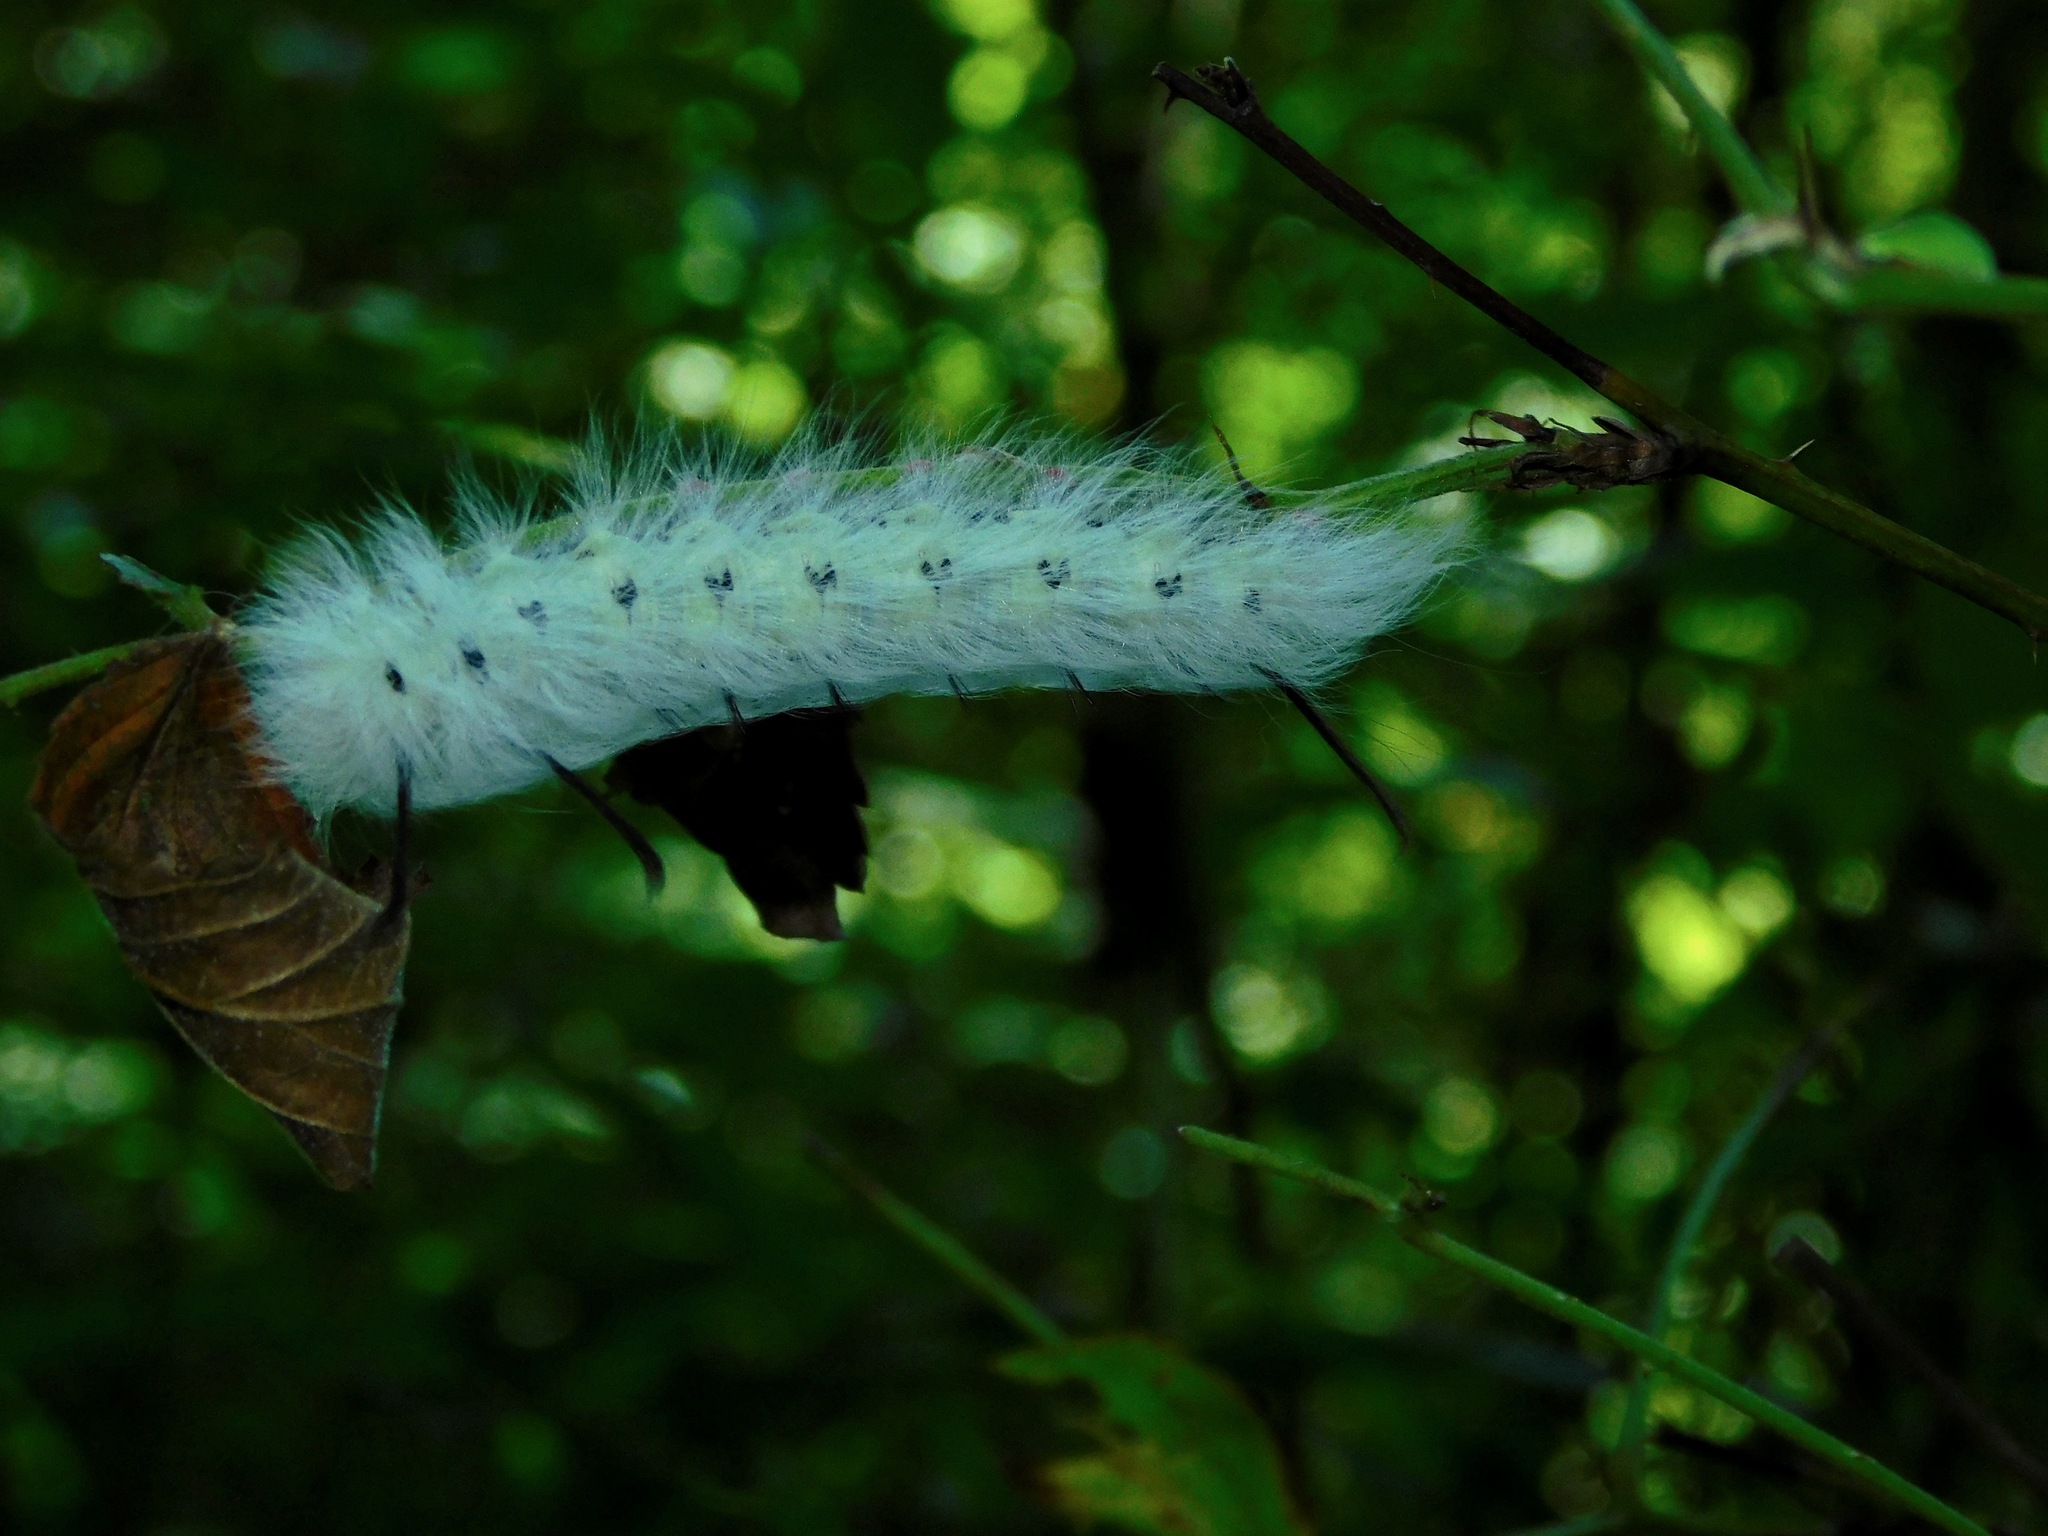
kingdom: Animalia
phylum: Arthropoda
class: Insecta
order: Lepidoptera
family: Noctuidae
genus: Acronicta
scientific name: Acronicta americana
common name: American dagger
